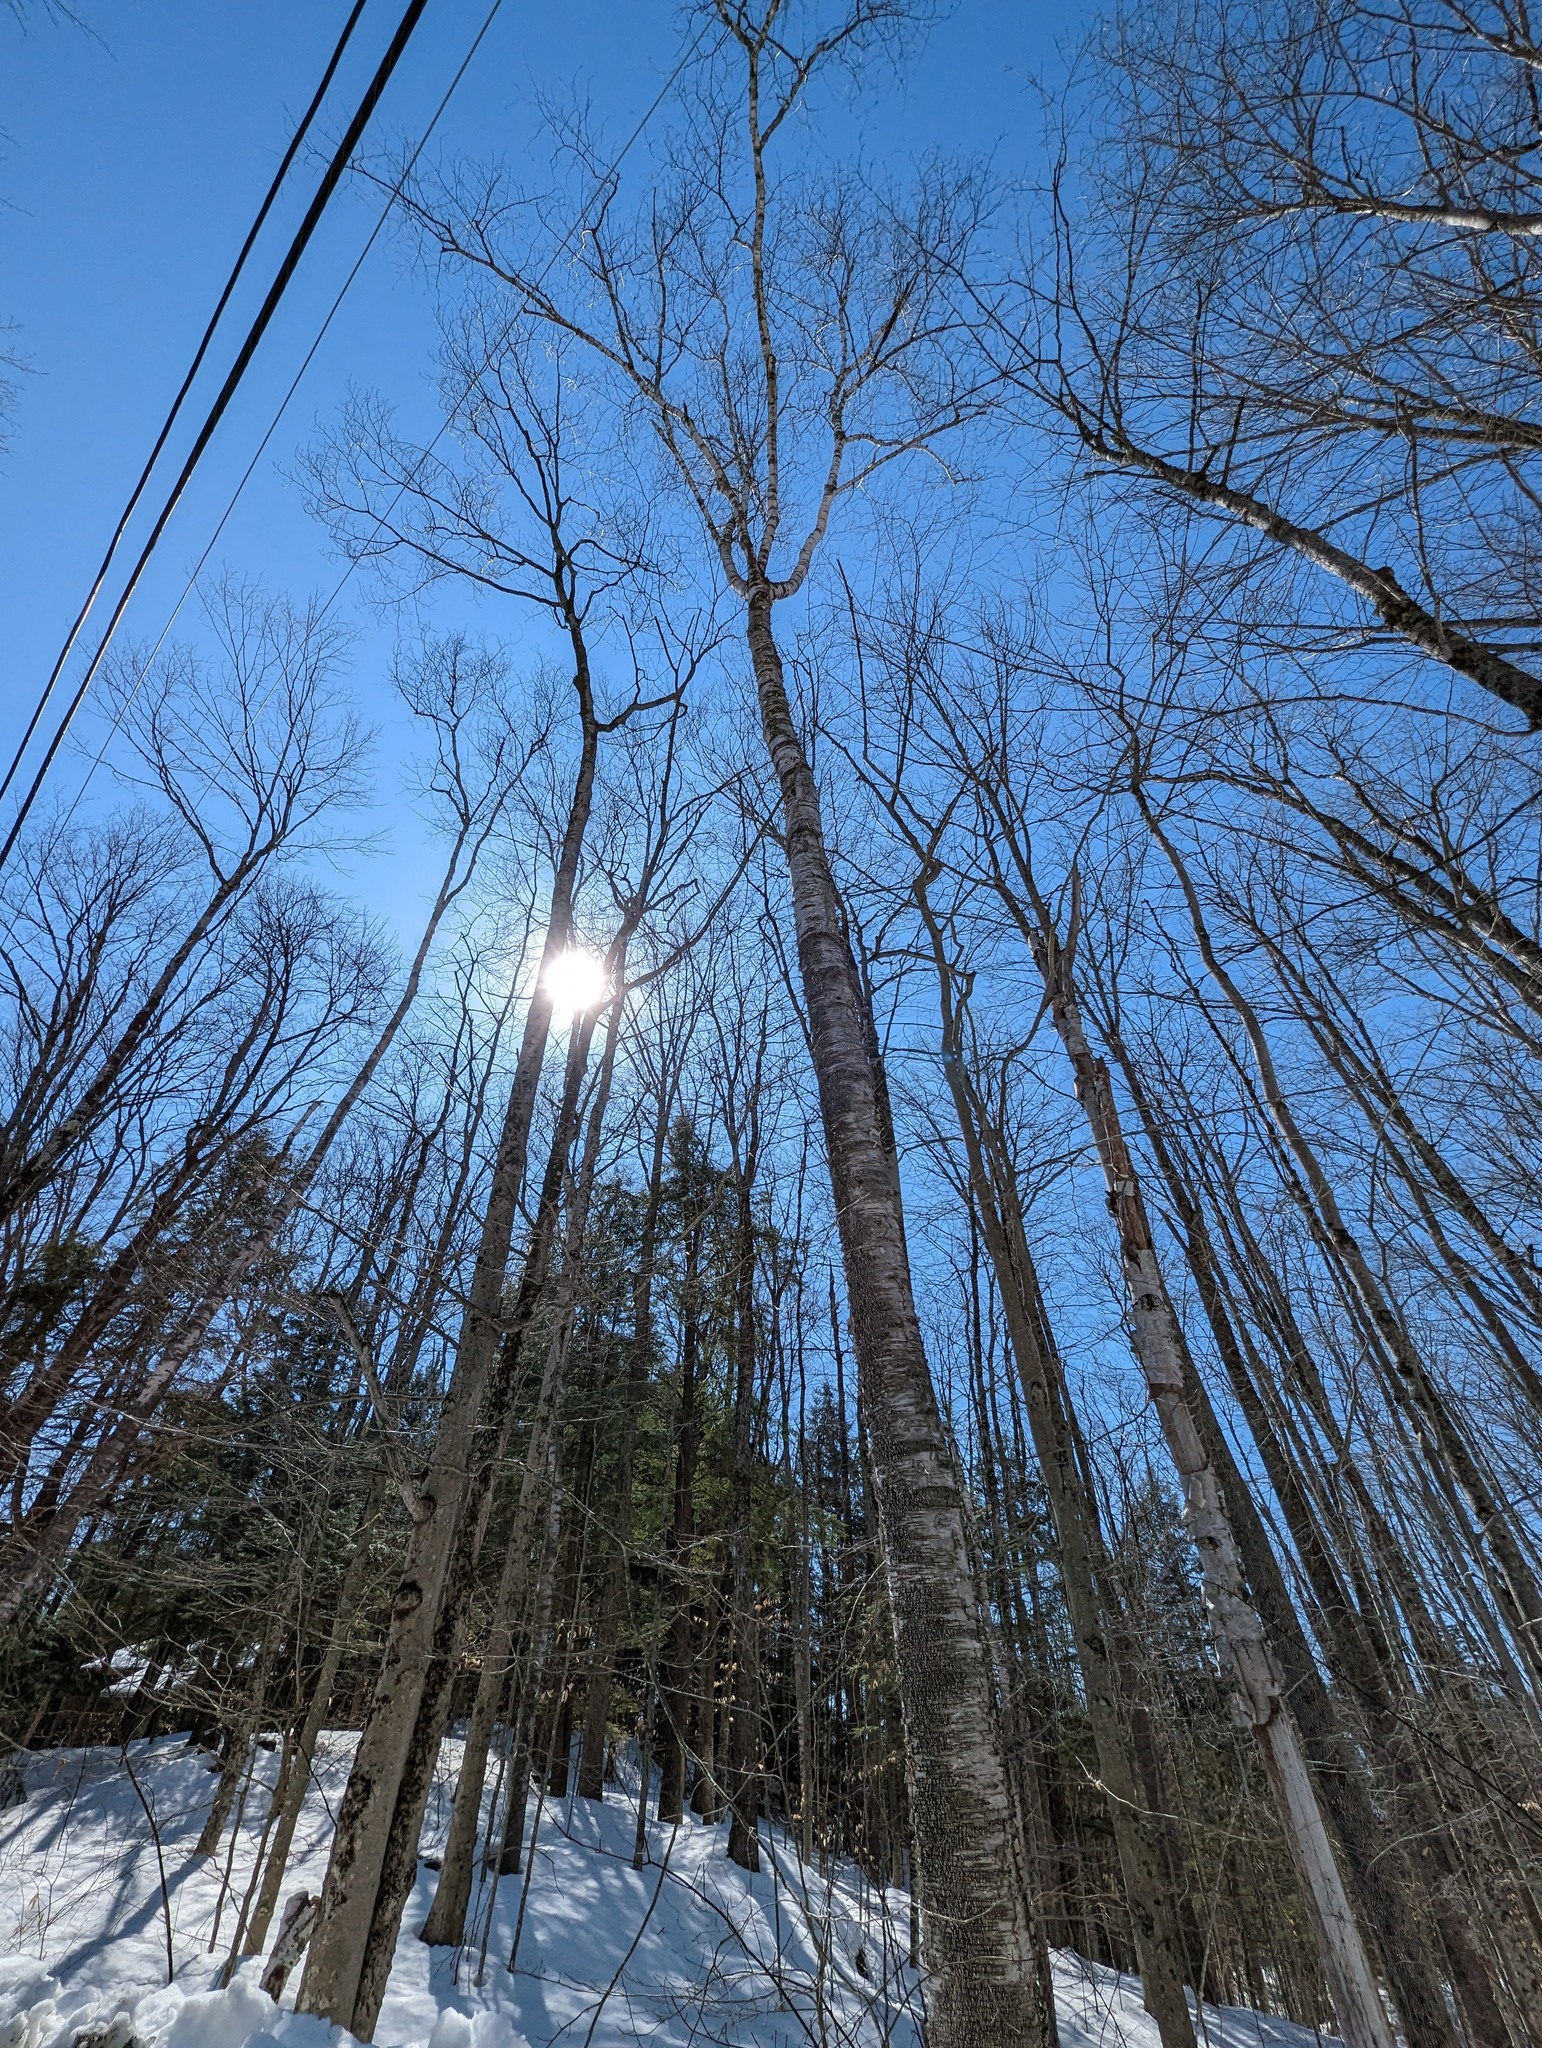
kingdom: Plantae
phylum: Tracheophyta
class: Magnoliopsida
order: Fagales
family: Betulaceae
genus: Betula
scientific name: Betula papyrifera
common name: Paper birch
